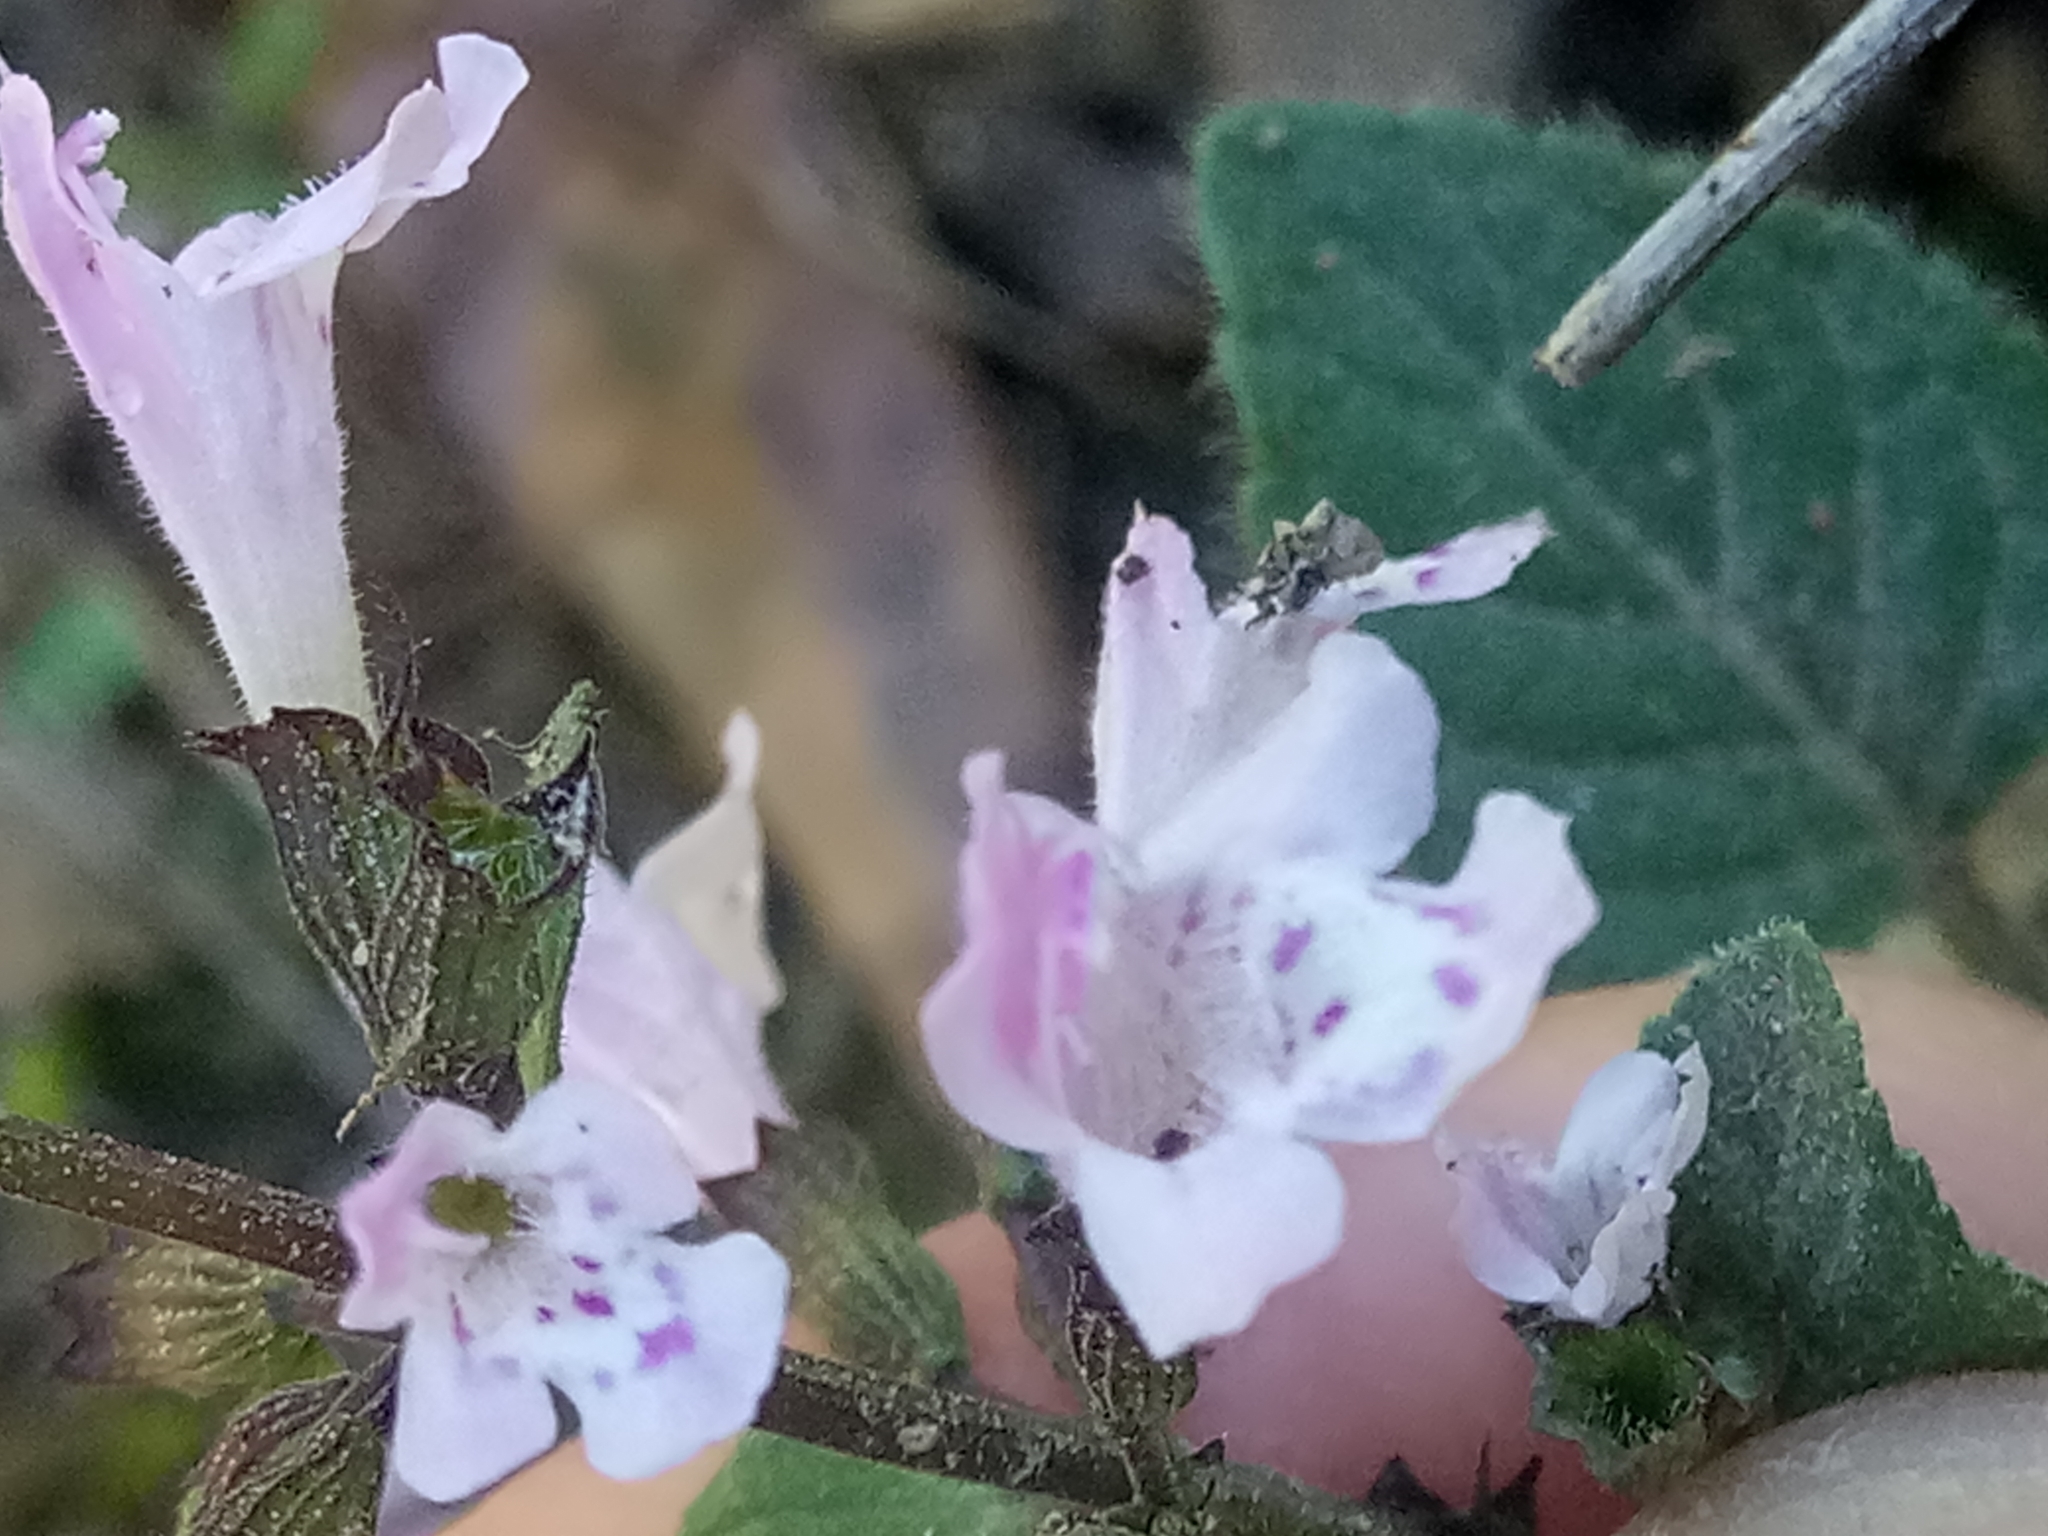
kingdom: Plantae
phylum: Tracheophyta
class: Magnoliopsida
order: Lamiales
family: Lamiaceae
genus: Clinopodium
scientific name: Clinopodium menthifolium
